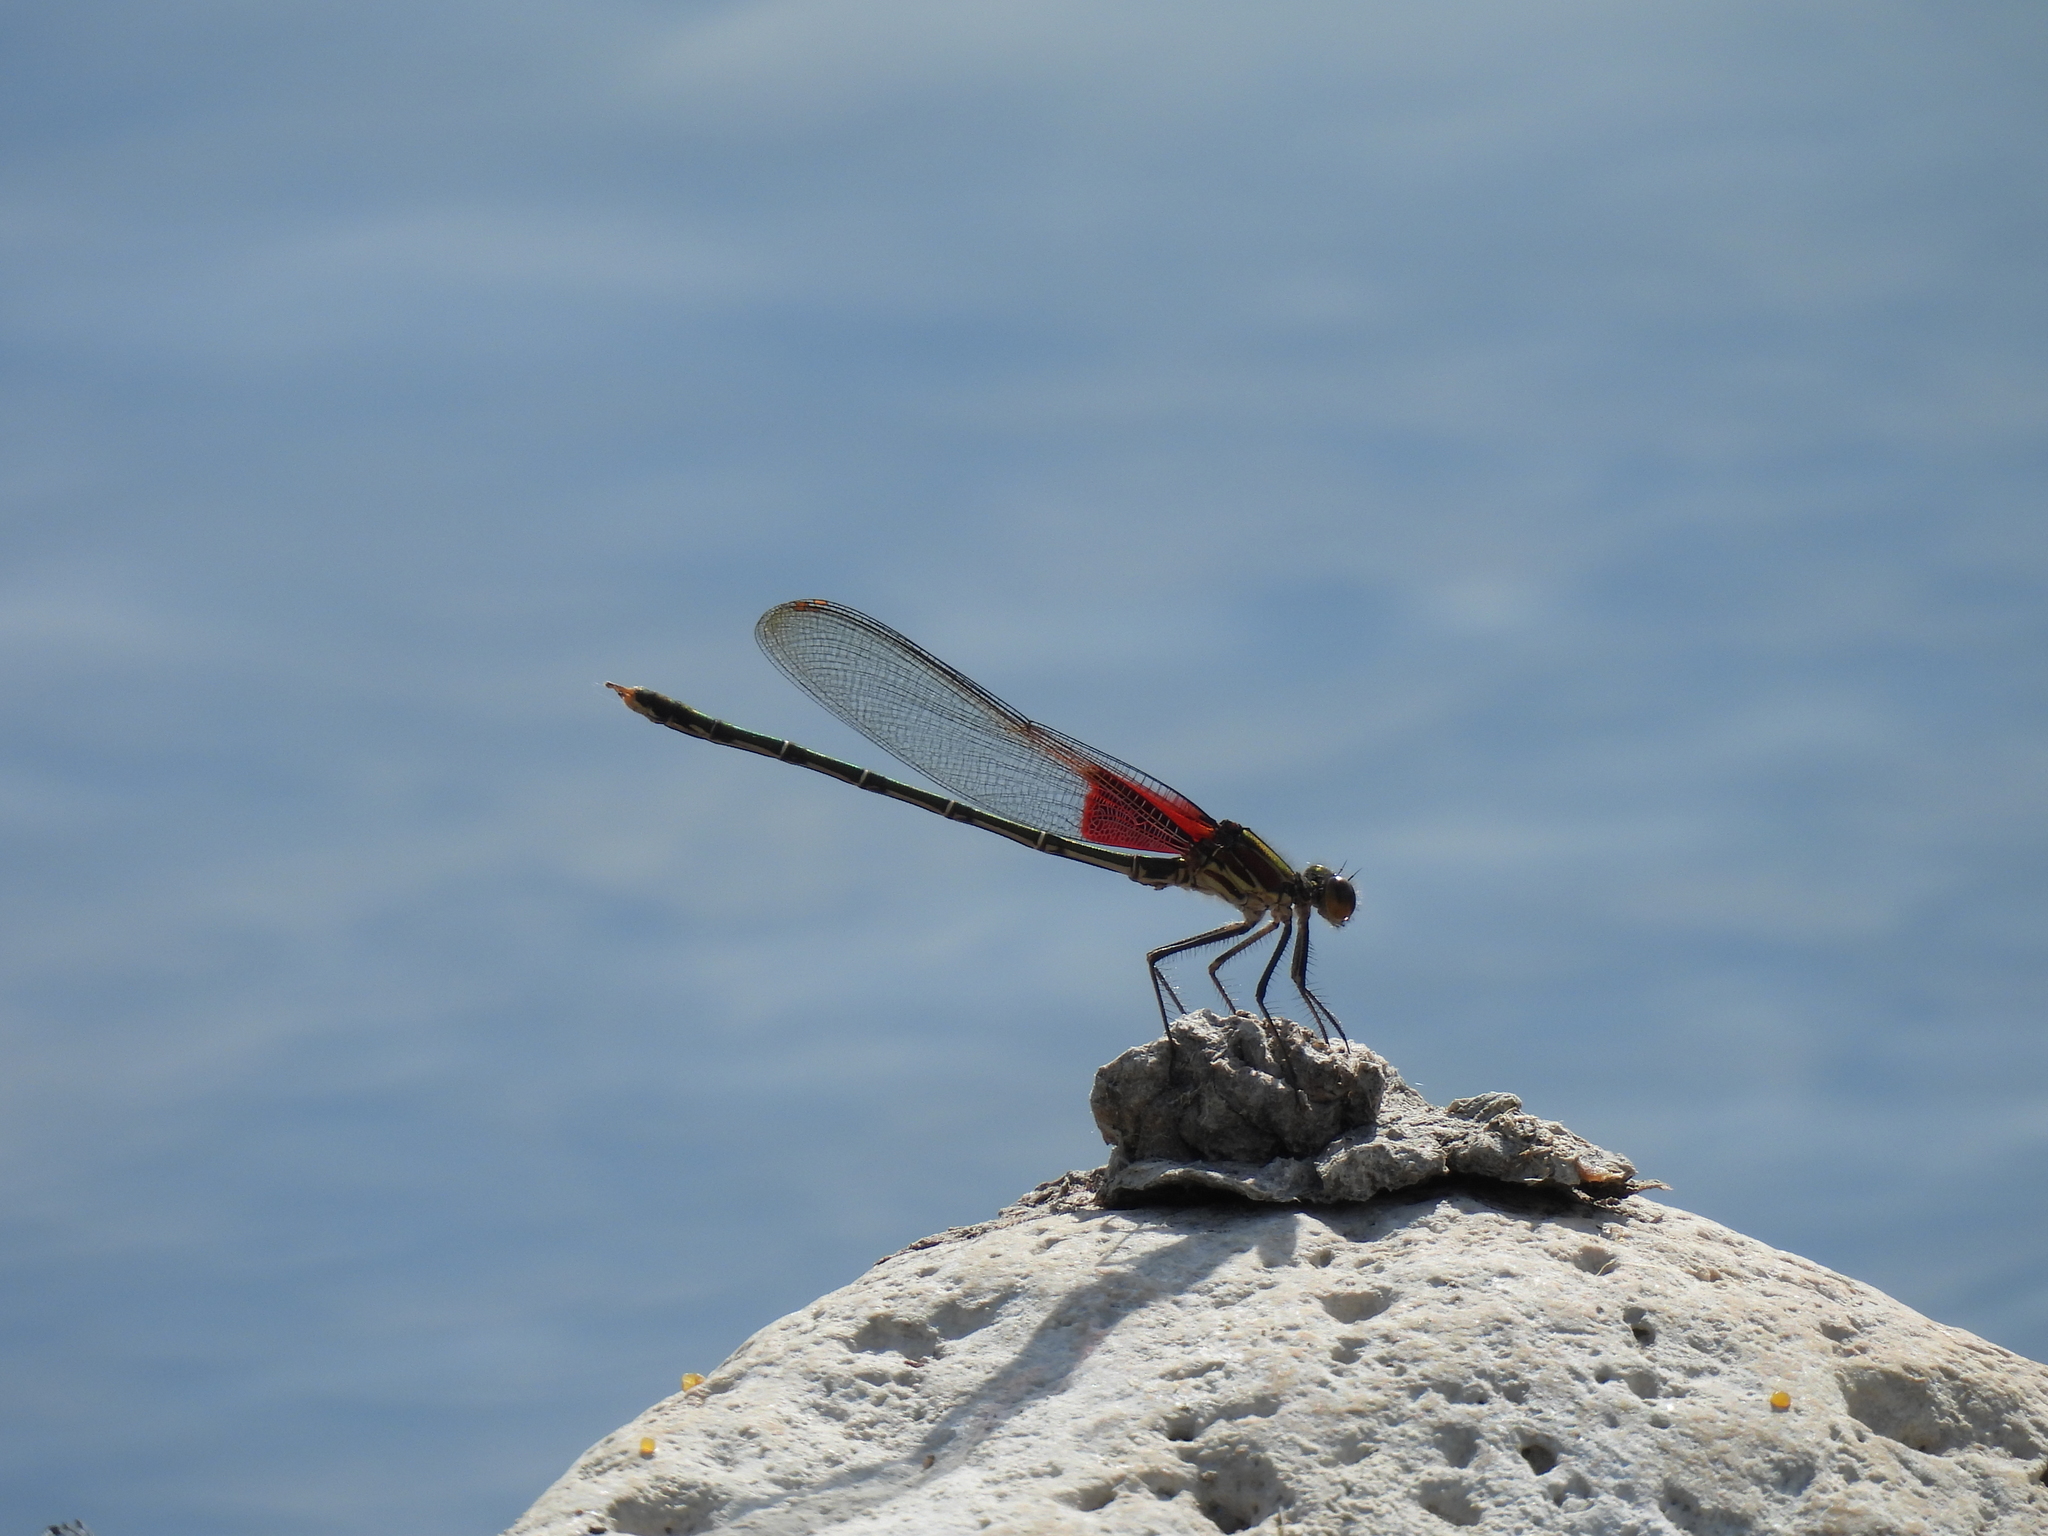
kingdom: Animalia
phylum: Arthropoda
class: Insecta
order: Odonata
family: Calopterygidae
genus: Hetaerina
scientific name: Hetaerina americana
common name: American rubyspot
